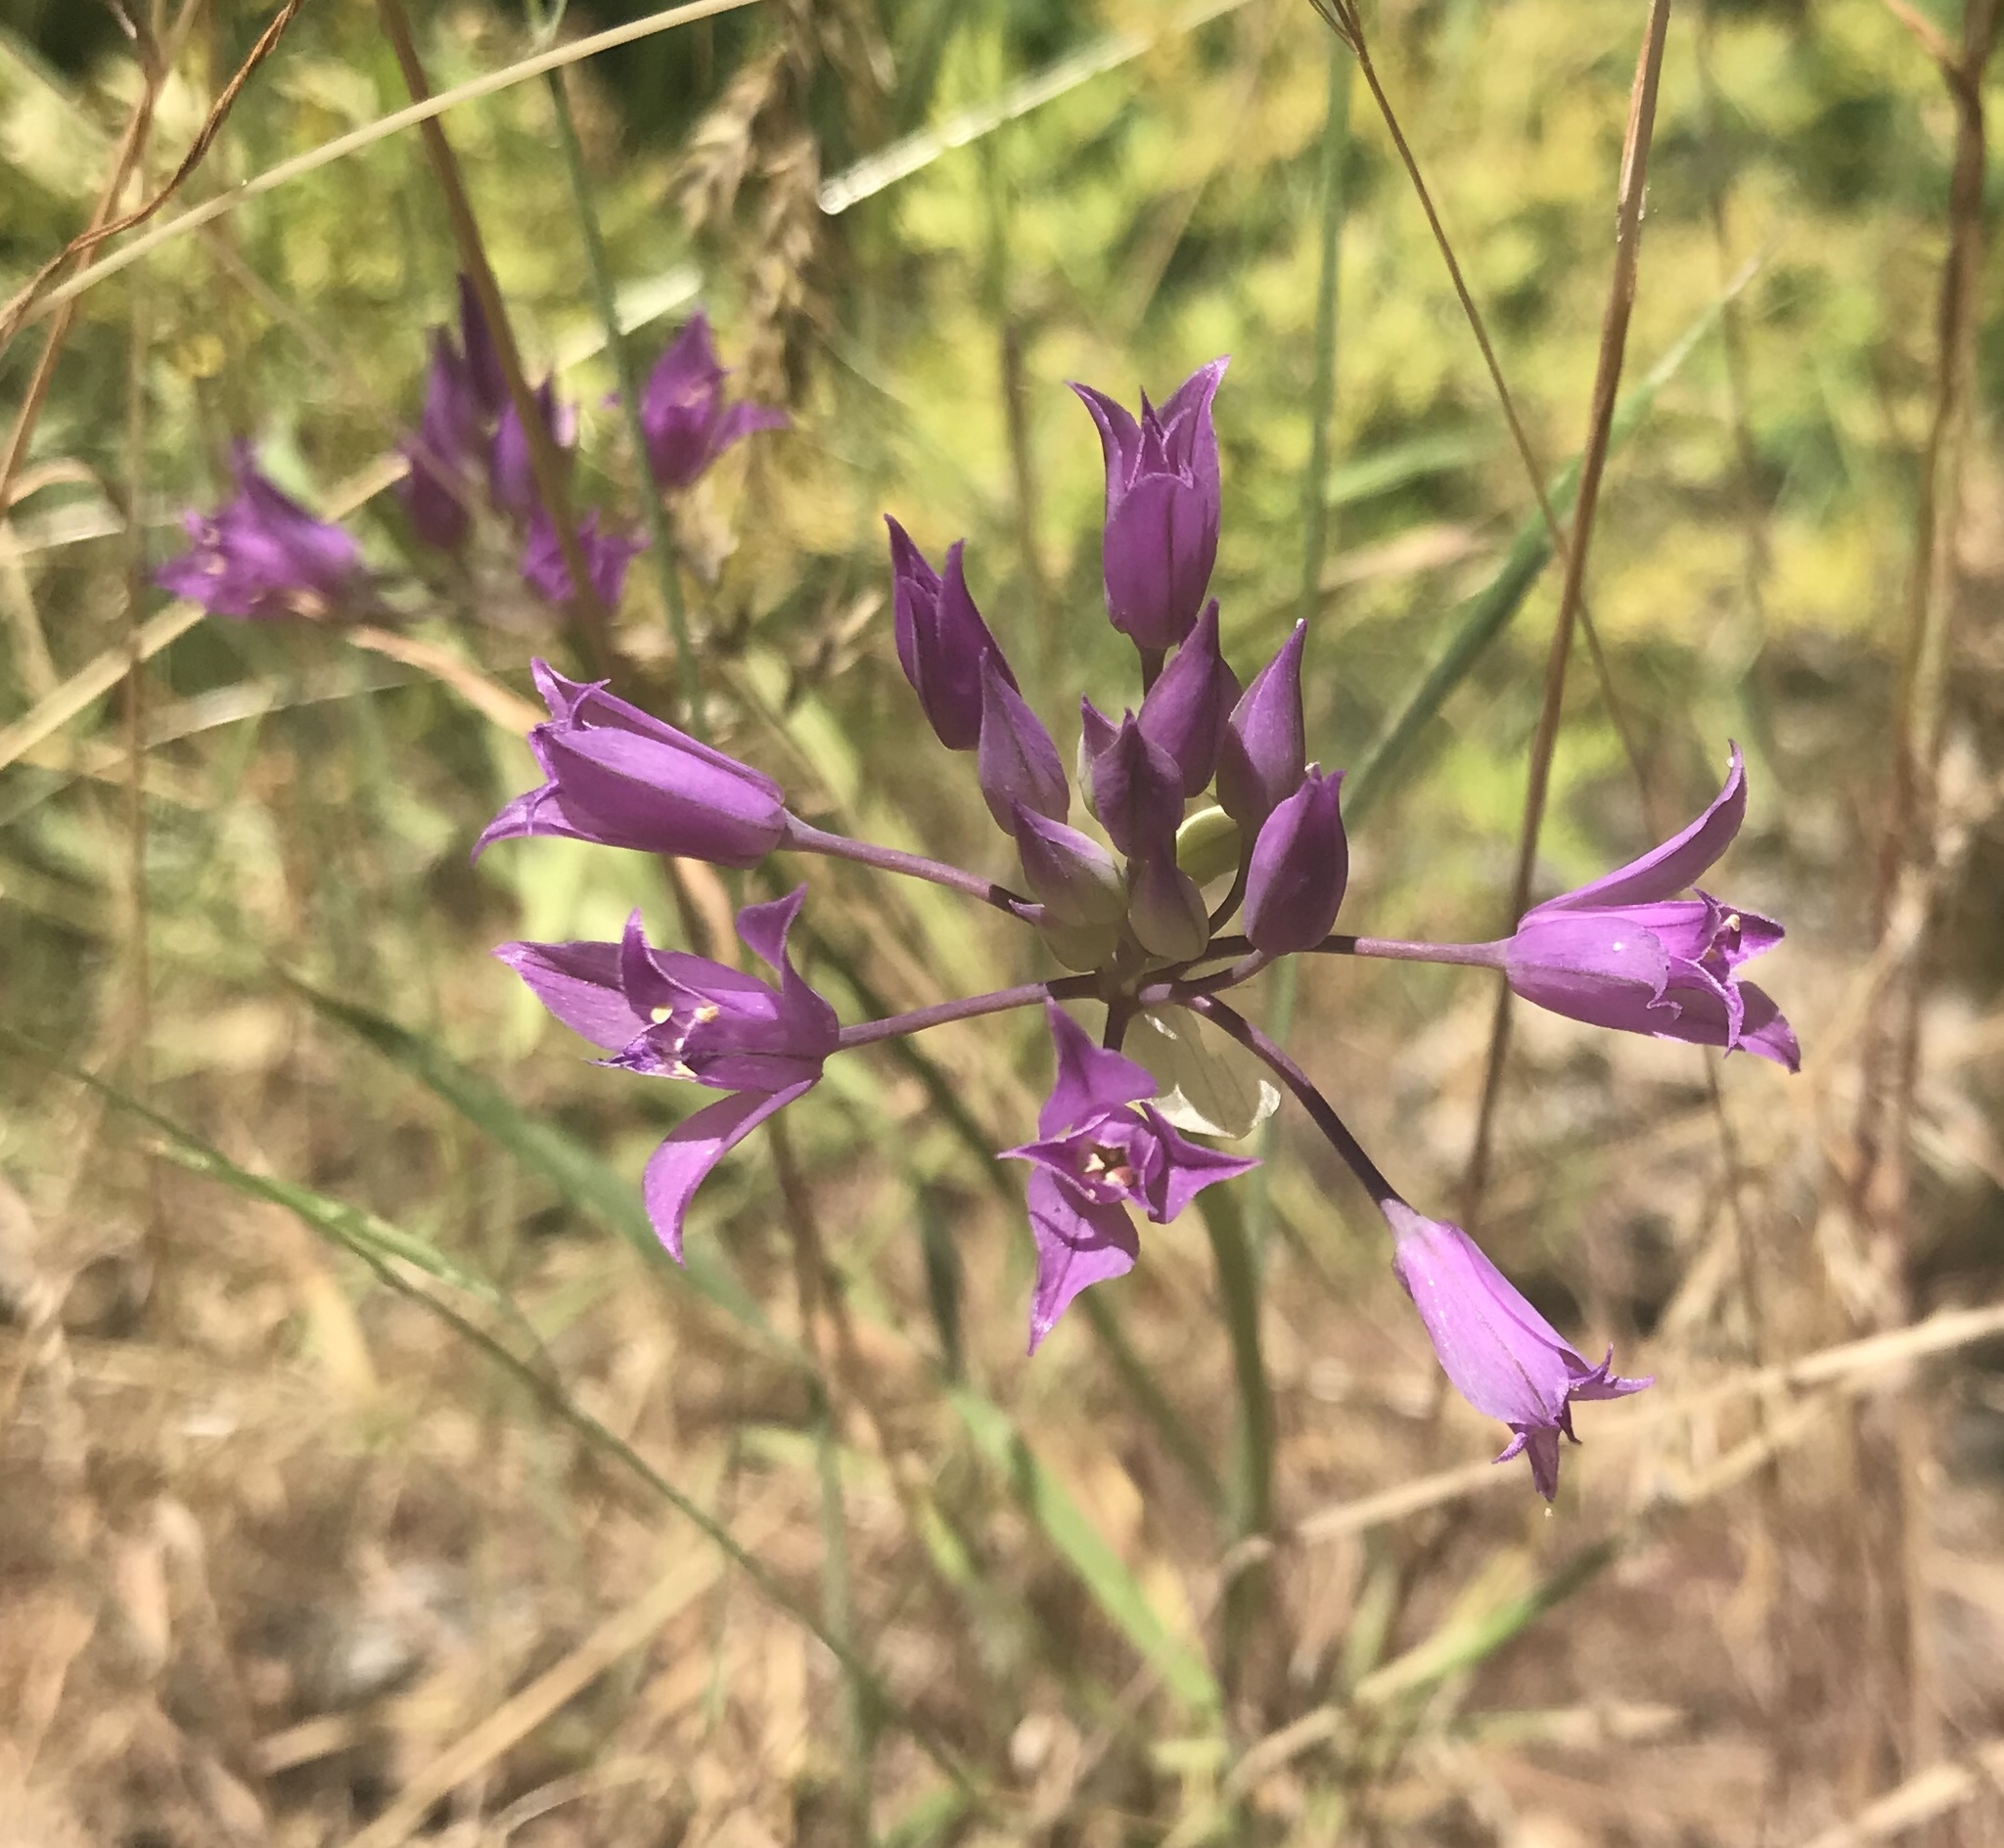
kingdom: Plantae
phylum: Tracheophyta
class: Liliopsida
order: Asparagales
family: Amaryllidaceae
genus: Allium
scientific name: Allium acuminatum
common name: Hooker's onion
